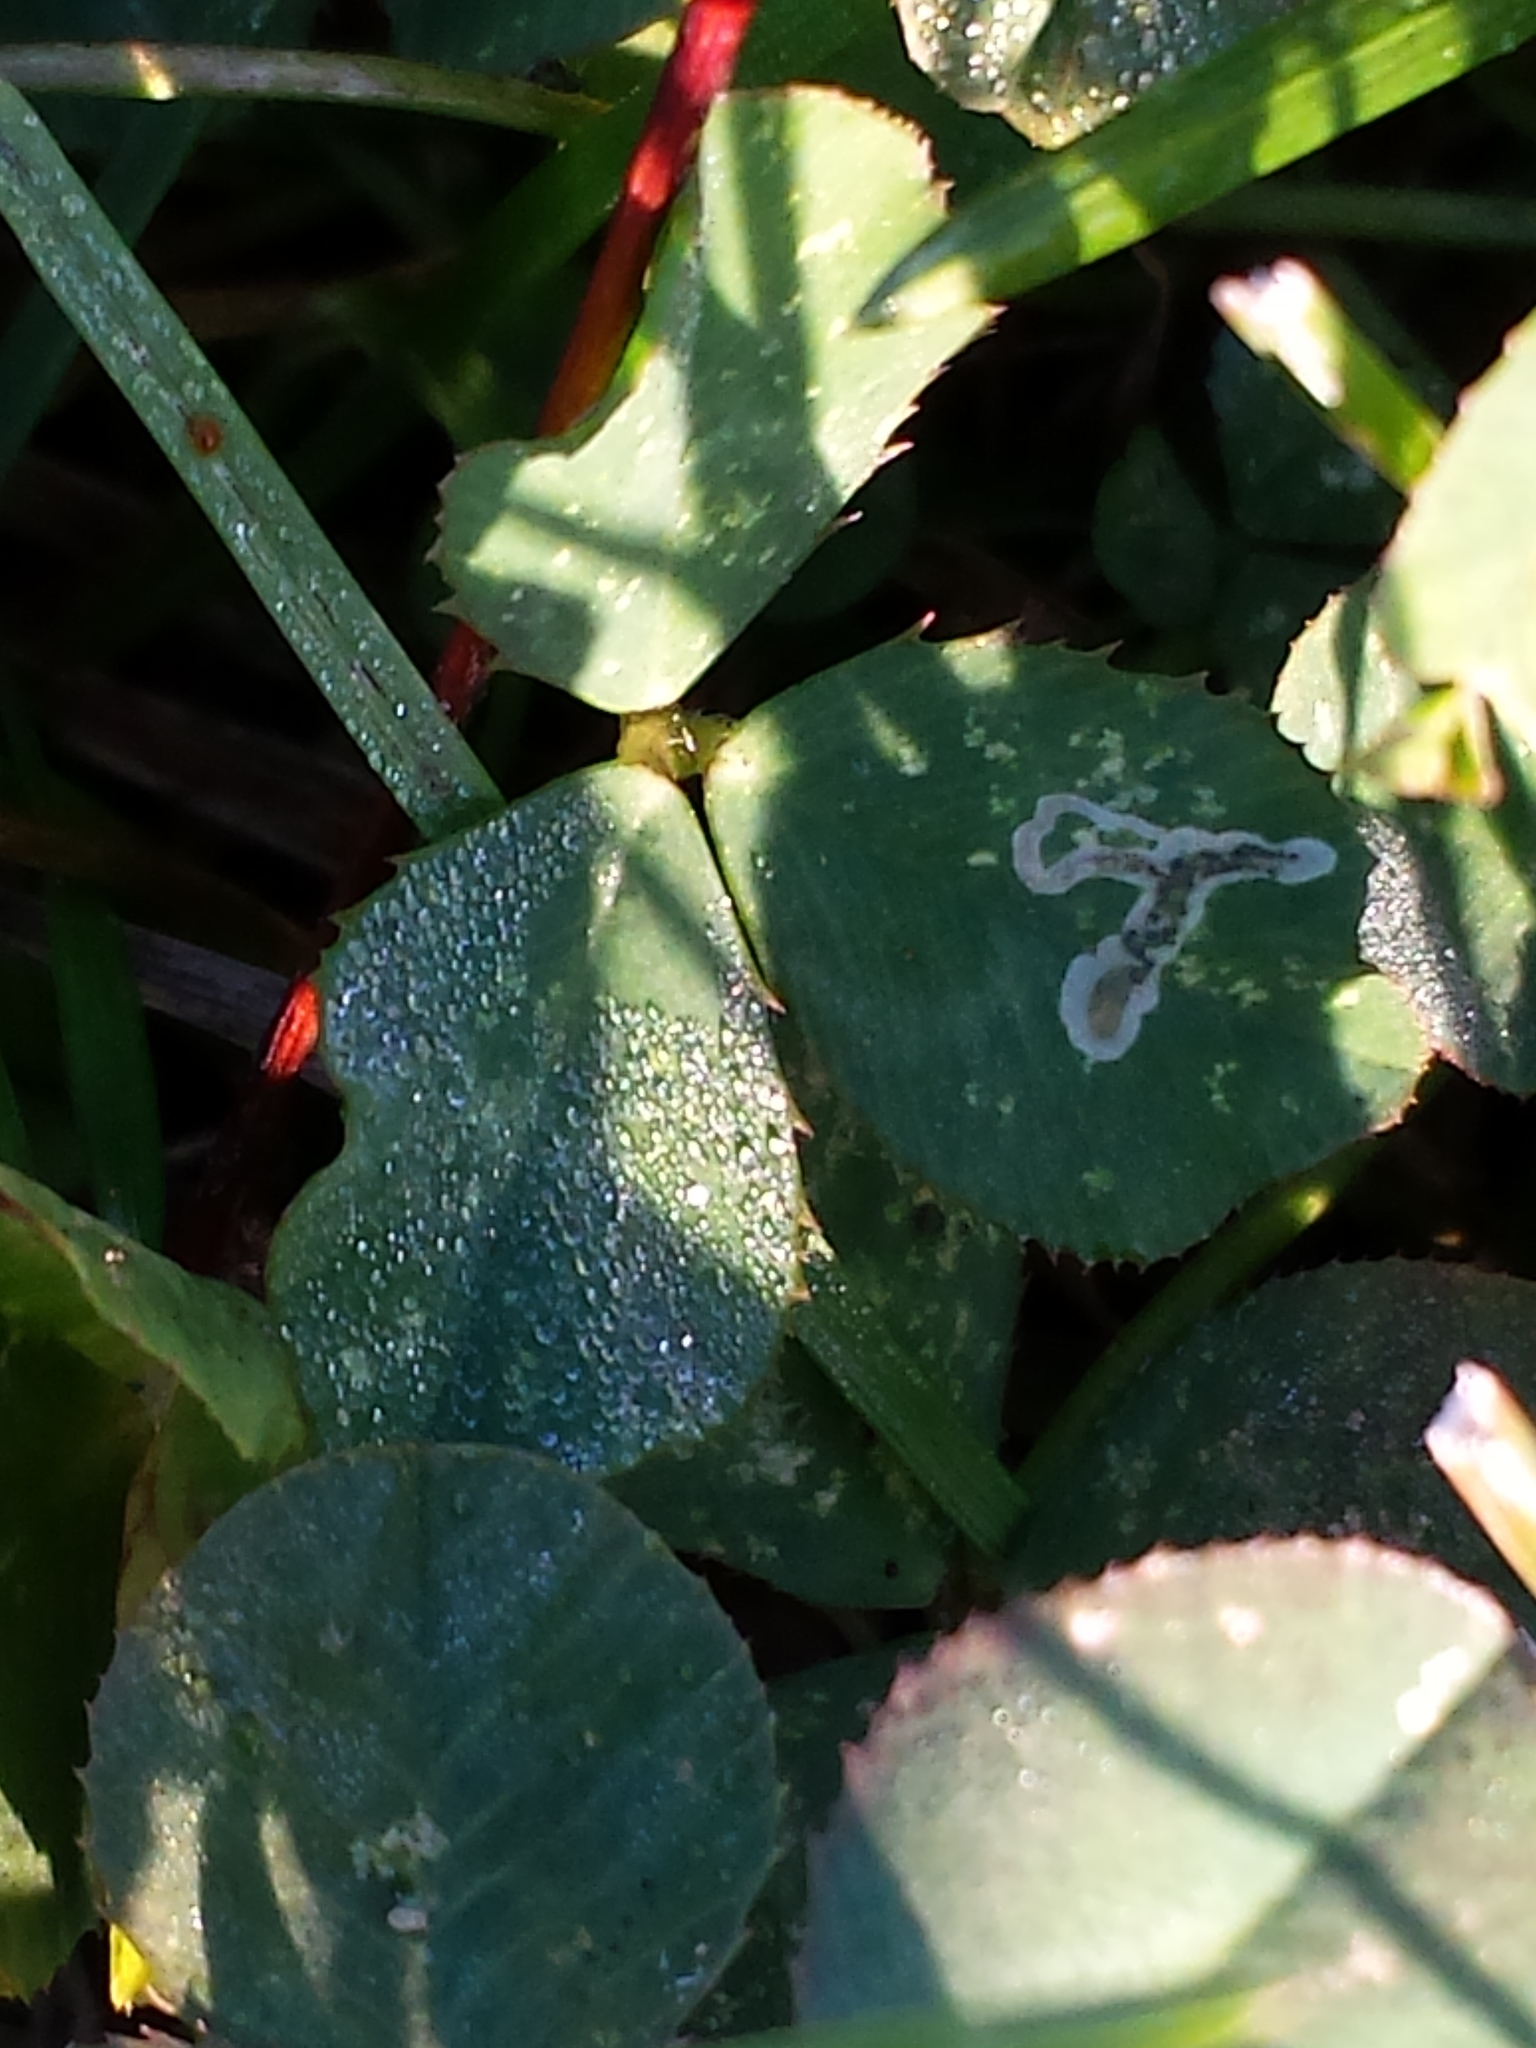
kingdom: Animalia
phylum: Arthropoda
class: Insecta
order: Diptera
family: Agromyzidae
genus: Liriomyza
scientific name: Liriomyza fricki
